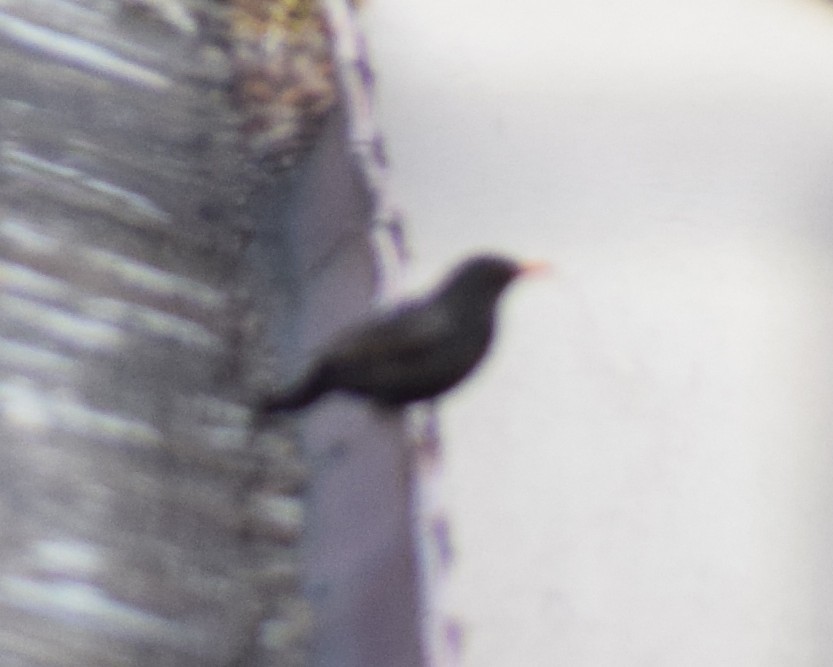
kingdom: Animalia
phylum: Chordata
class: Aves
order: Passeriformes
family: Turdidae
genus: Turdus
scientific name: Turdus merula
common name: Common blackbird
